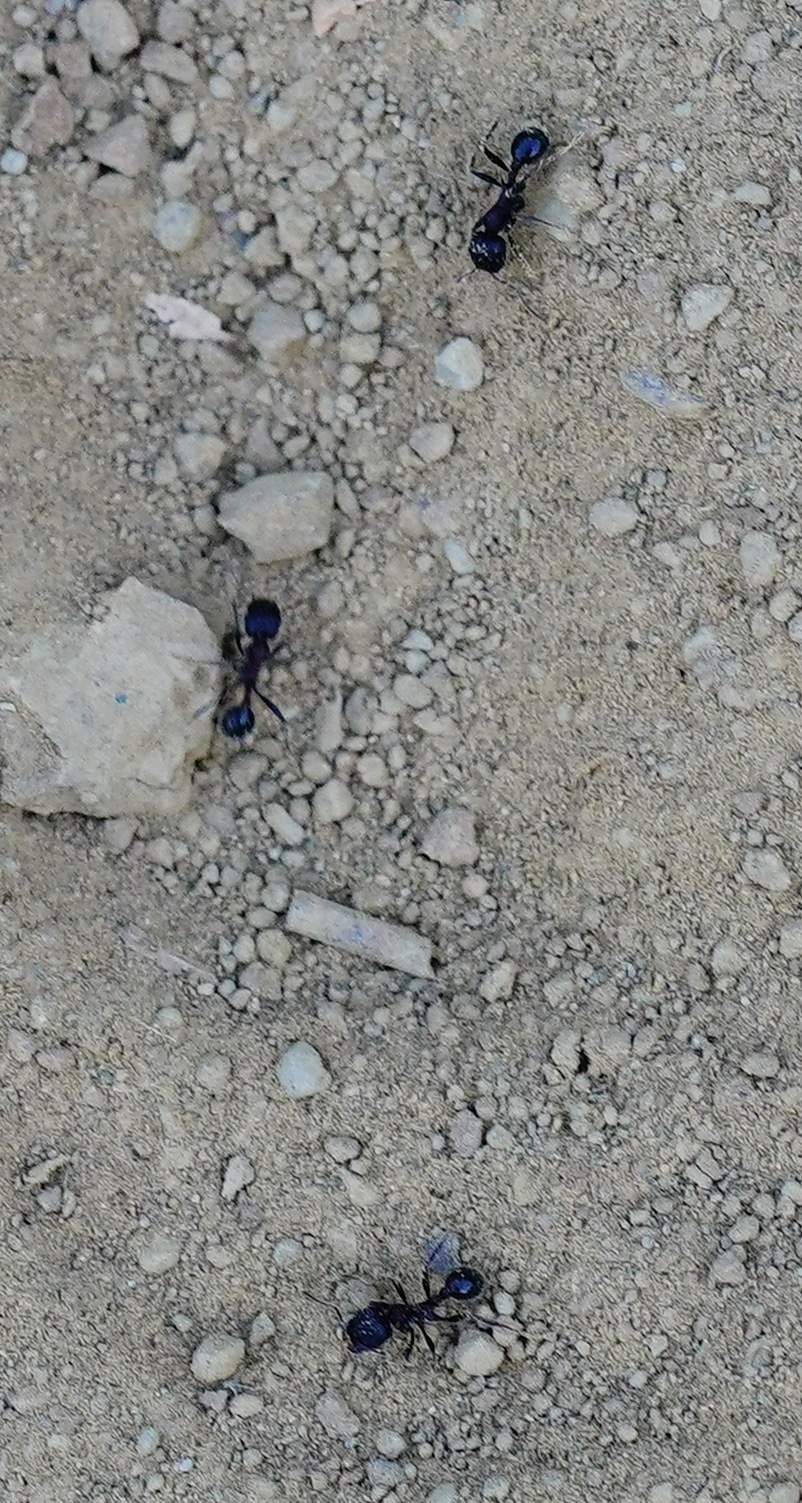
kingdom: Animalia
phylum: Arthropoda
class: Insecta
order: Hymenoptera
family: Formicidae
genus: Veromessor
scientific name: Veromessor andrei
